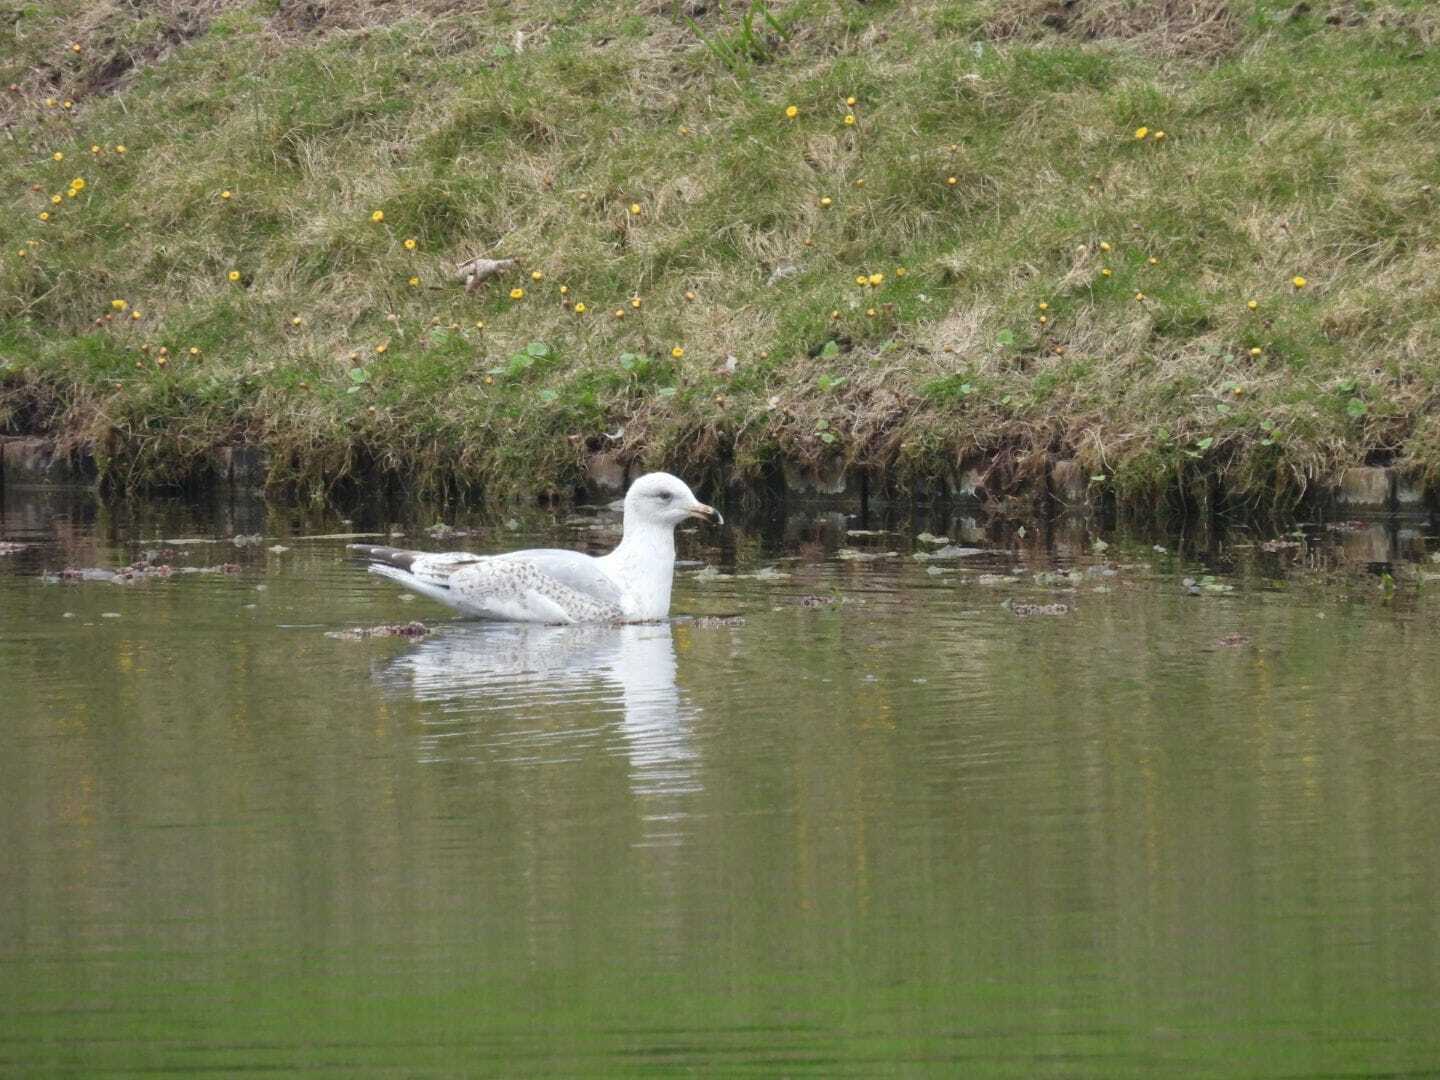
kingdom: Animalia
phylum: Chordata
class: Aves
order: Charadriiformes
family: Laridae
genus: Larus
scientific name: Larus argentatus
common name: Herring gull
